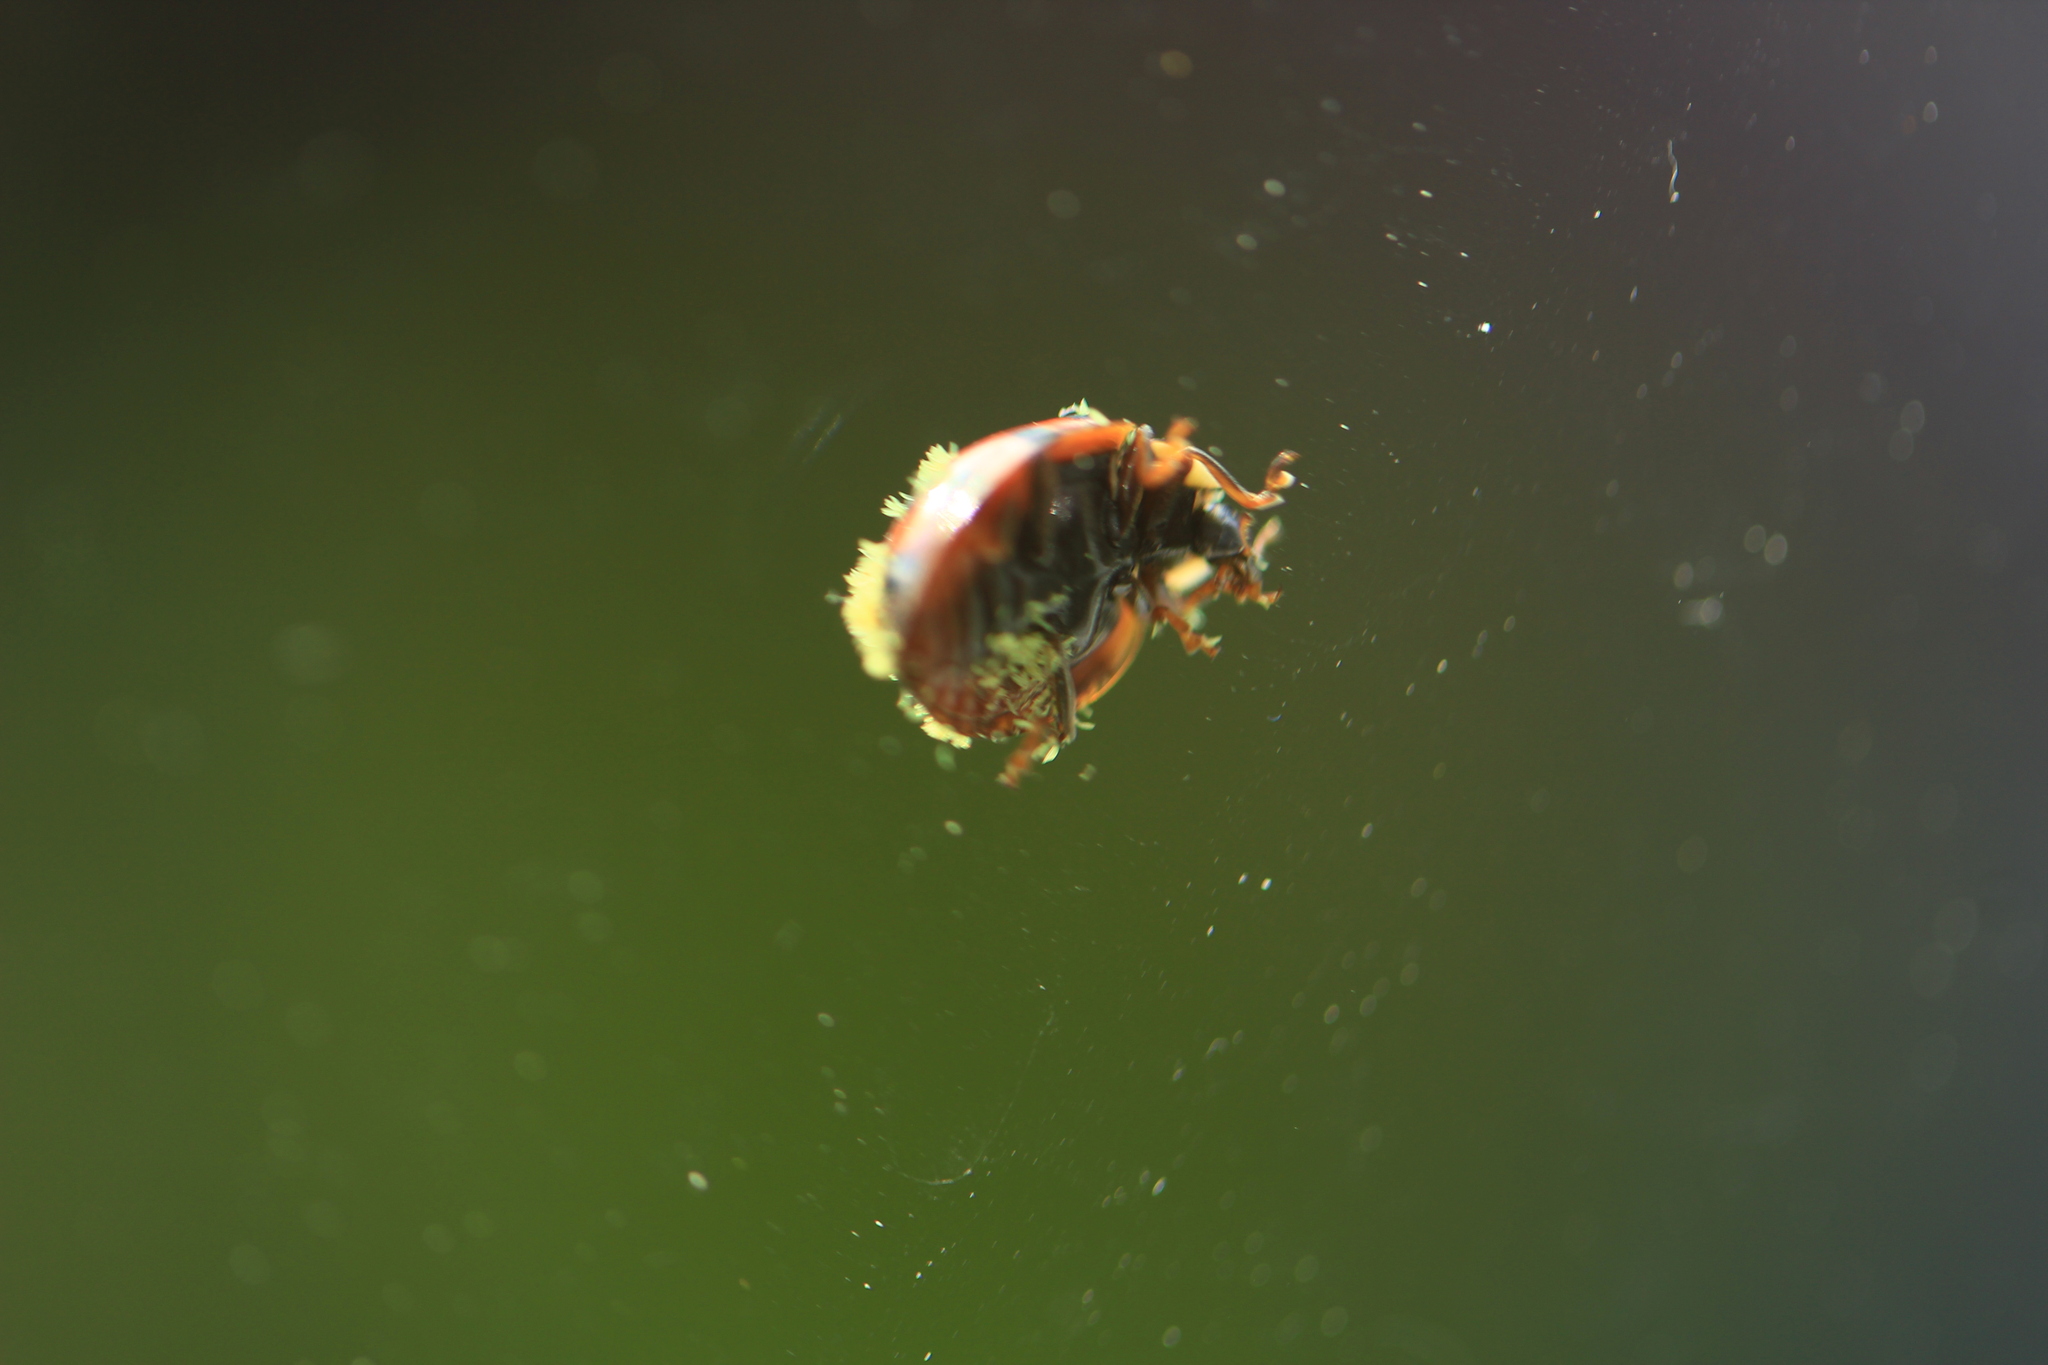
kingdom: Fungi
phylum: Ascomycota
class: Laboulbeniomycetes
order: Laboulbeniales
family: Laboulbeniaceae
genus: Hesperomyces
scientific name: Hesperomyces harmoniae
